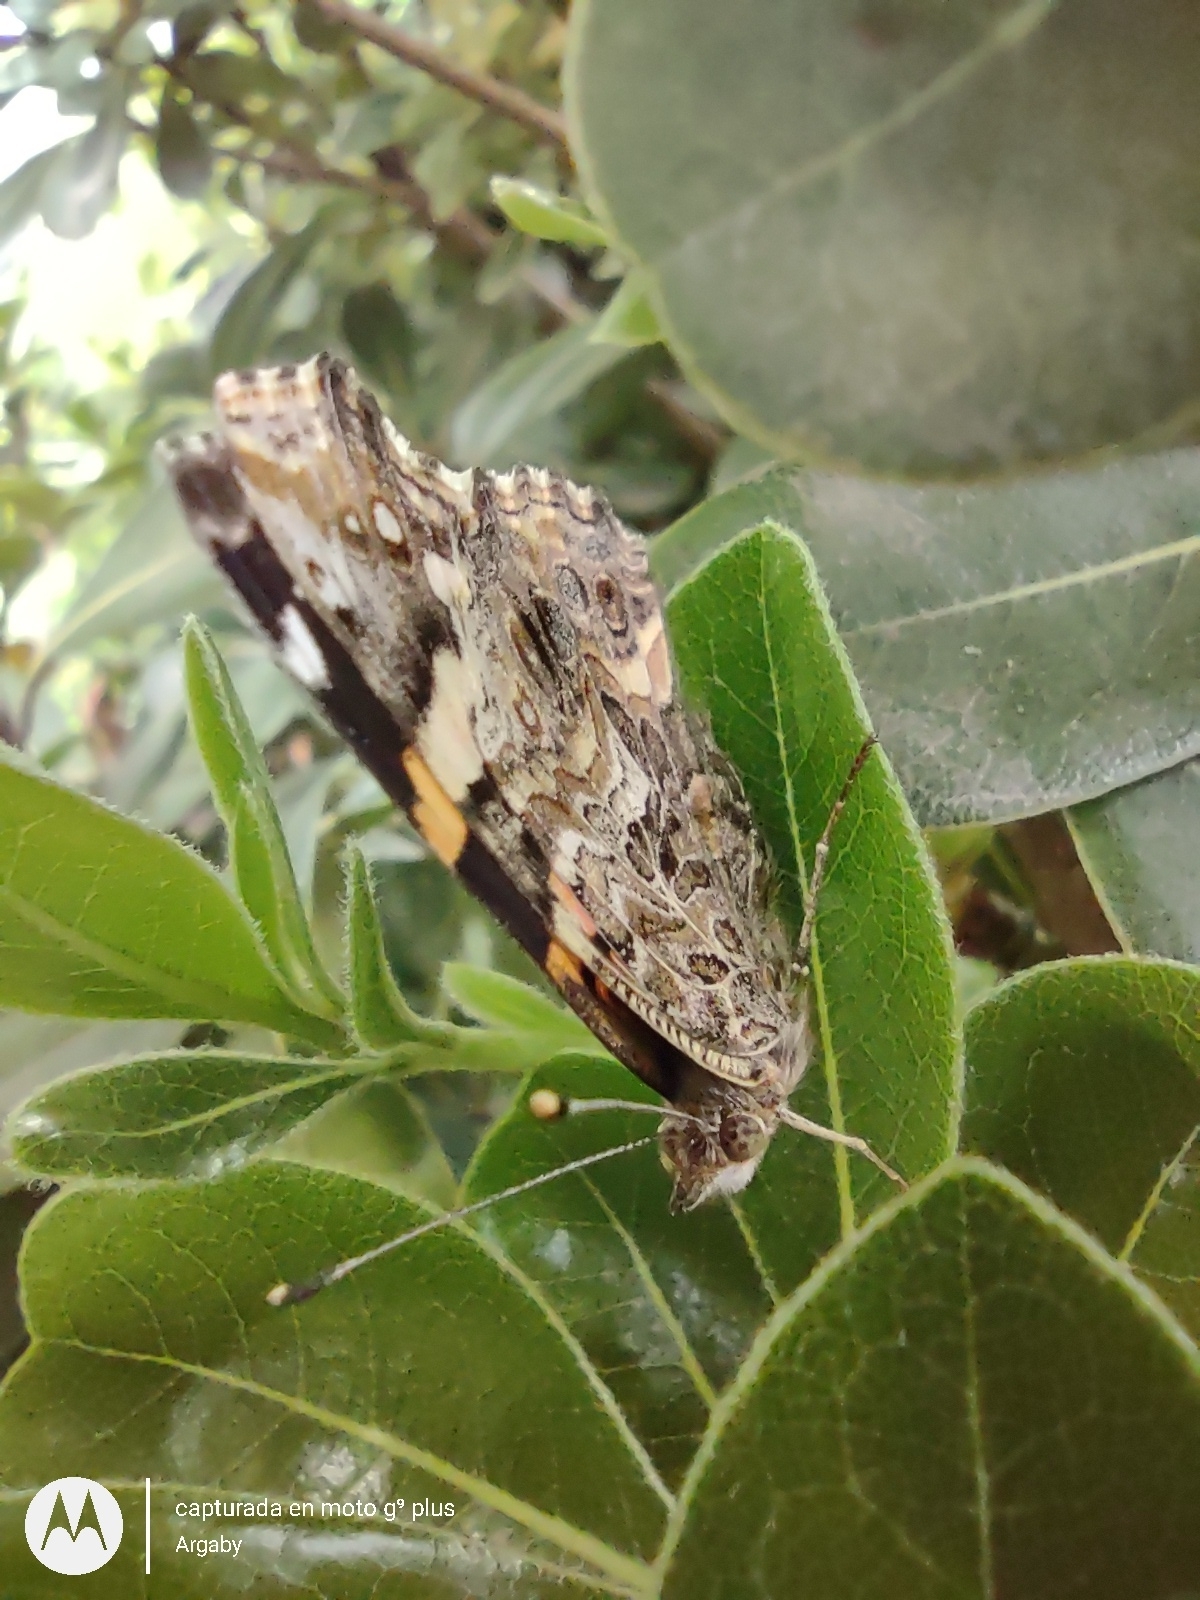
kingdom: Animalia
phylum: Arthropoda
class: Insecta
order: Lepidoptera
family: Nymphalidae
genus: Vanessa
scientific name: Vanessa carye
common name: Subtropical lady
